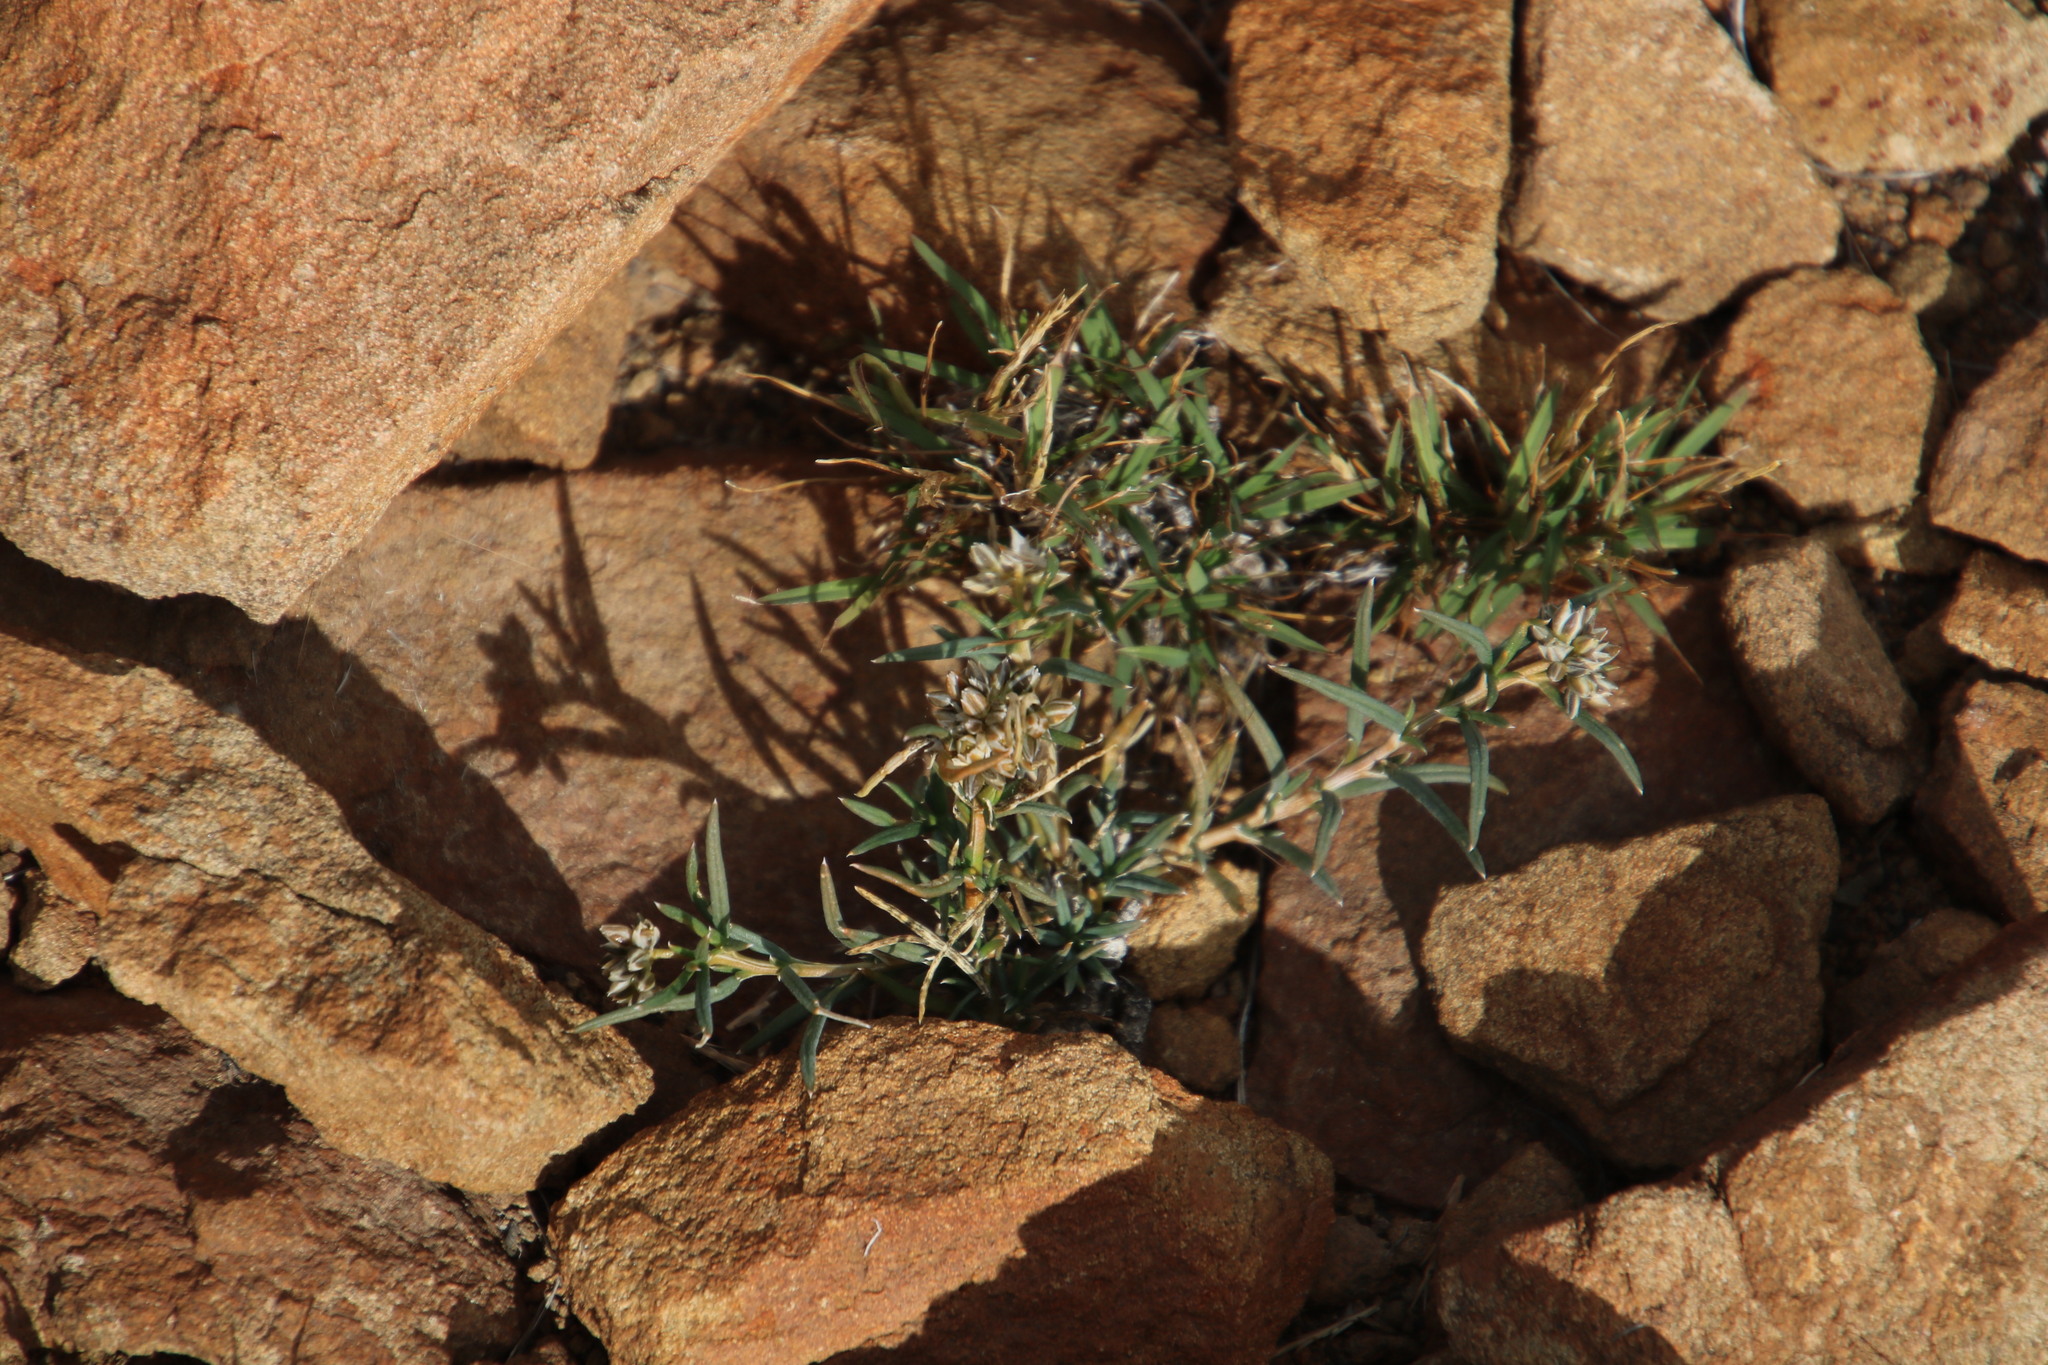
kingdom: Plantae
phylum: Tracheophyta
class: Magnoliopsida
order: Caryophyllales
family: Limeaceae
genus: Limeum
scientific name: Limeum aethiopicum
